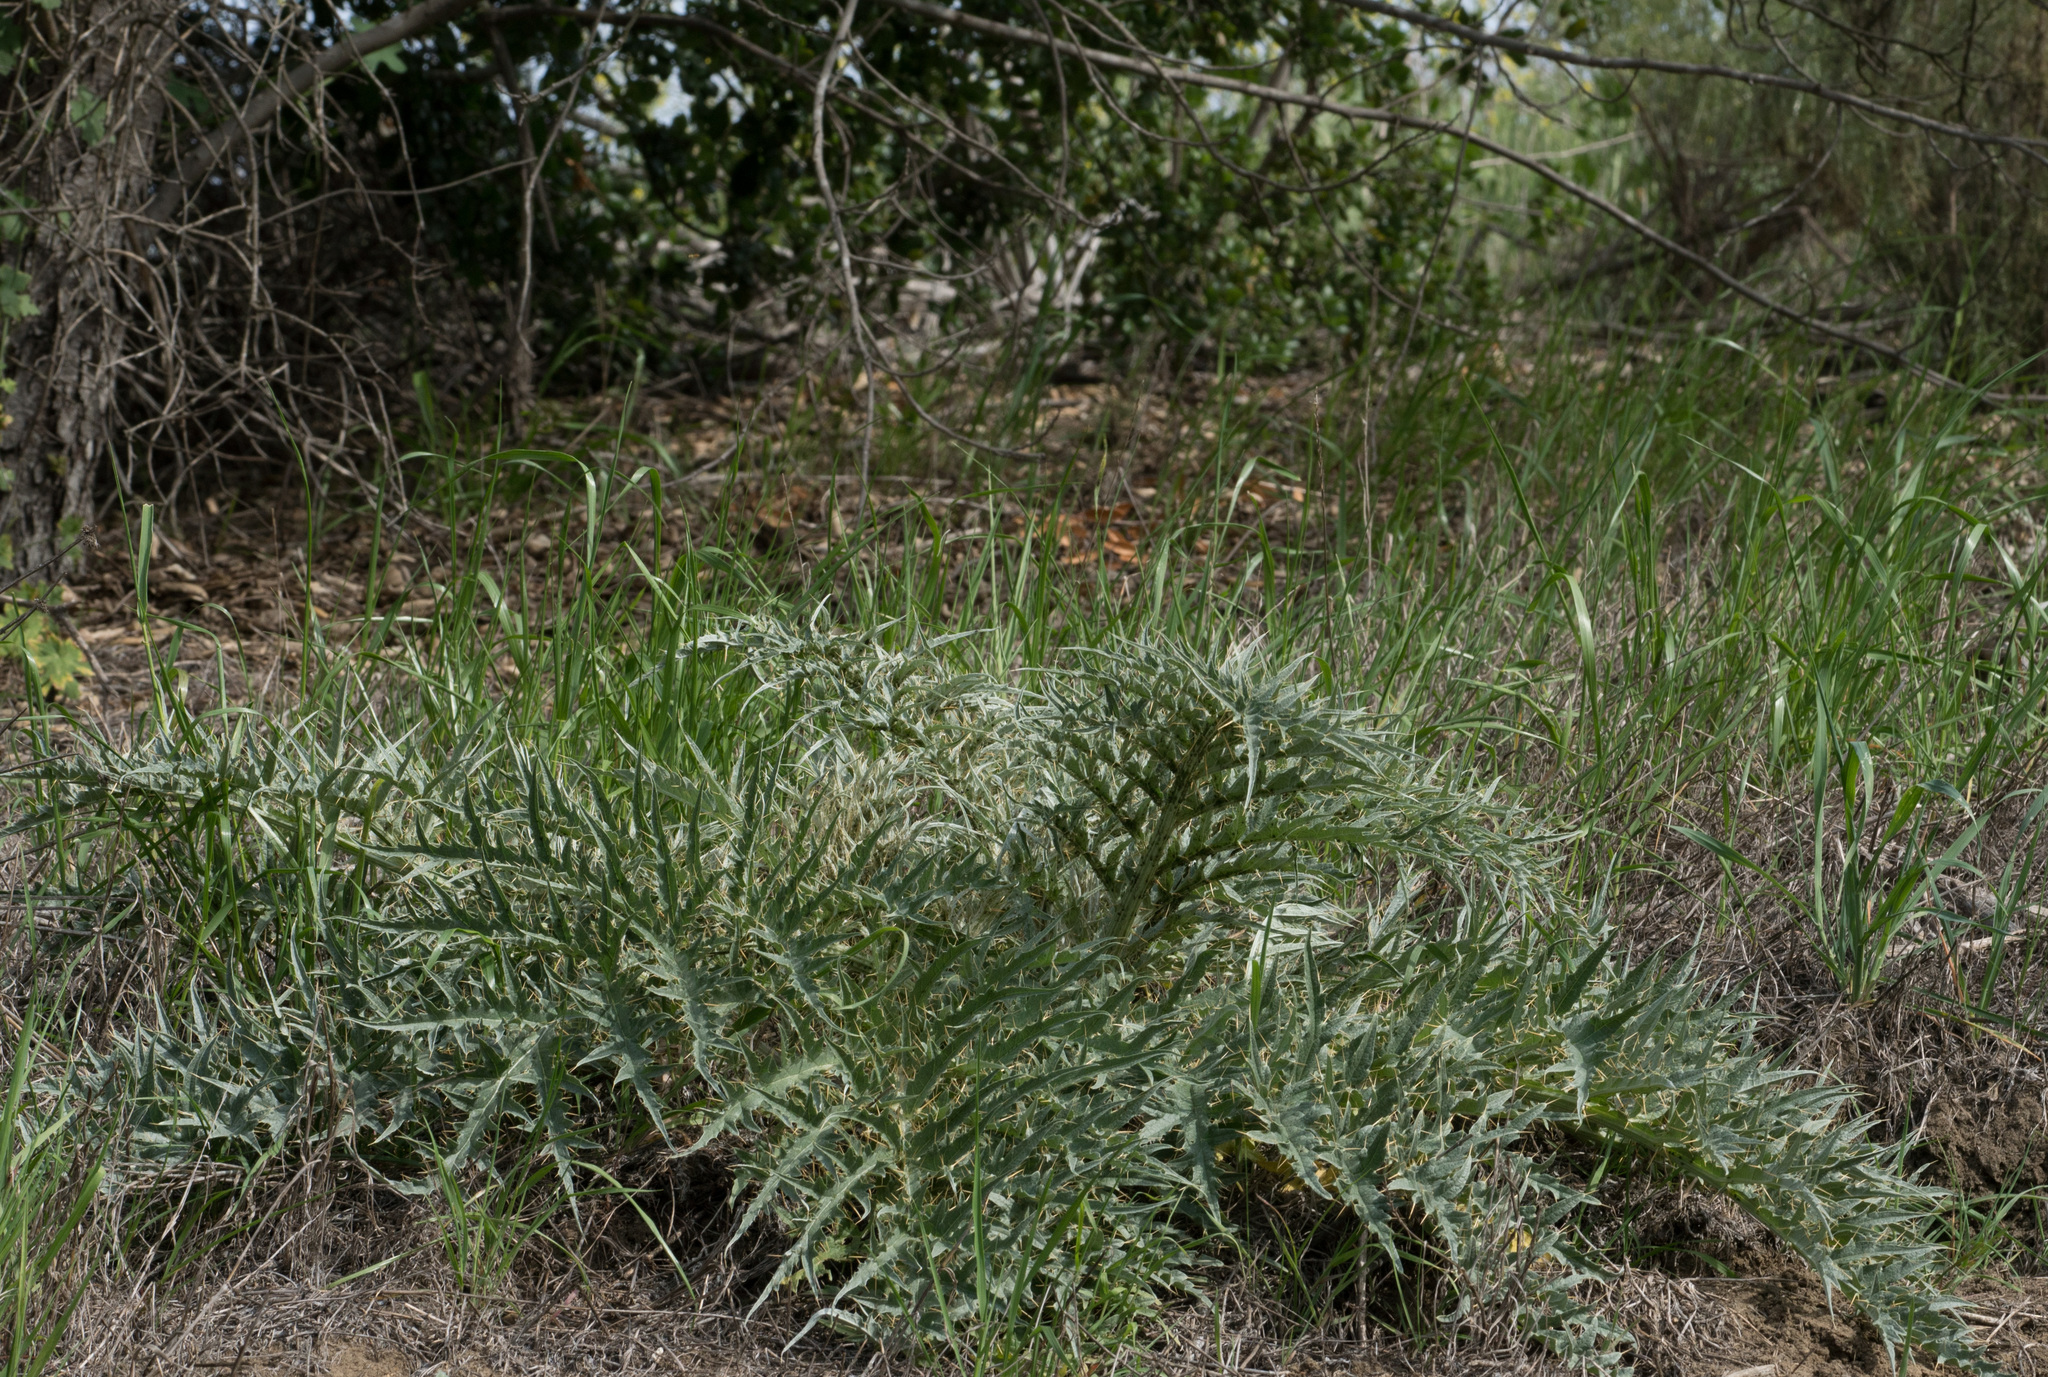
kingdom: Plantae
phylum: Tracheophyta
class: Magnoliopsida
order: Asterales
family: Asteraceae
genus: Cynara
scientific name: Cynara cardunculus
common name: Globe artichoke
